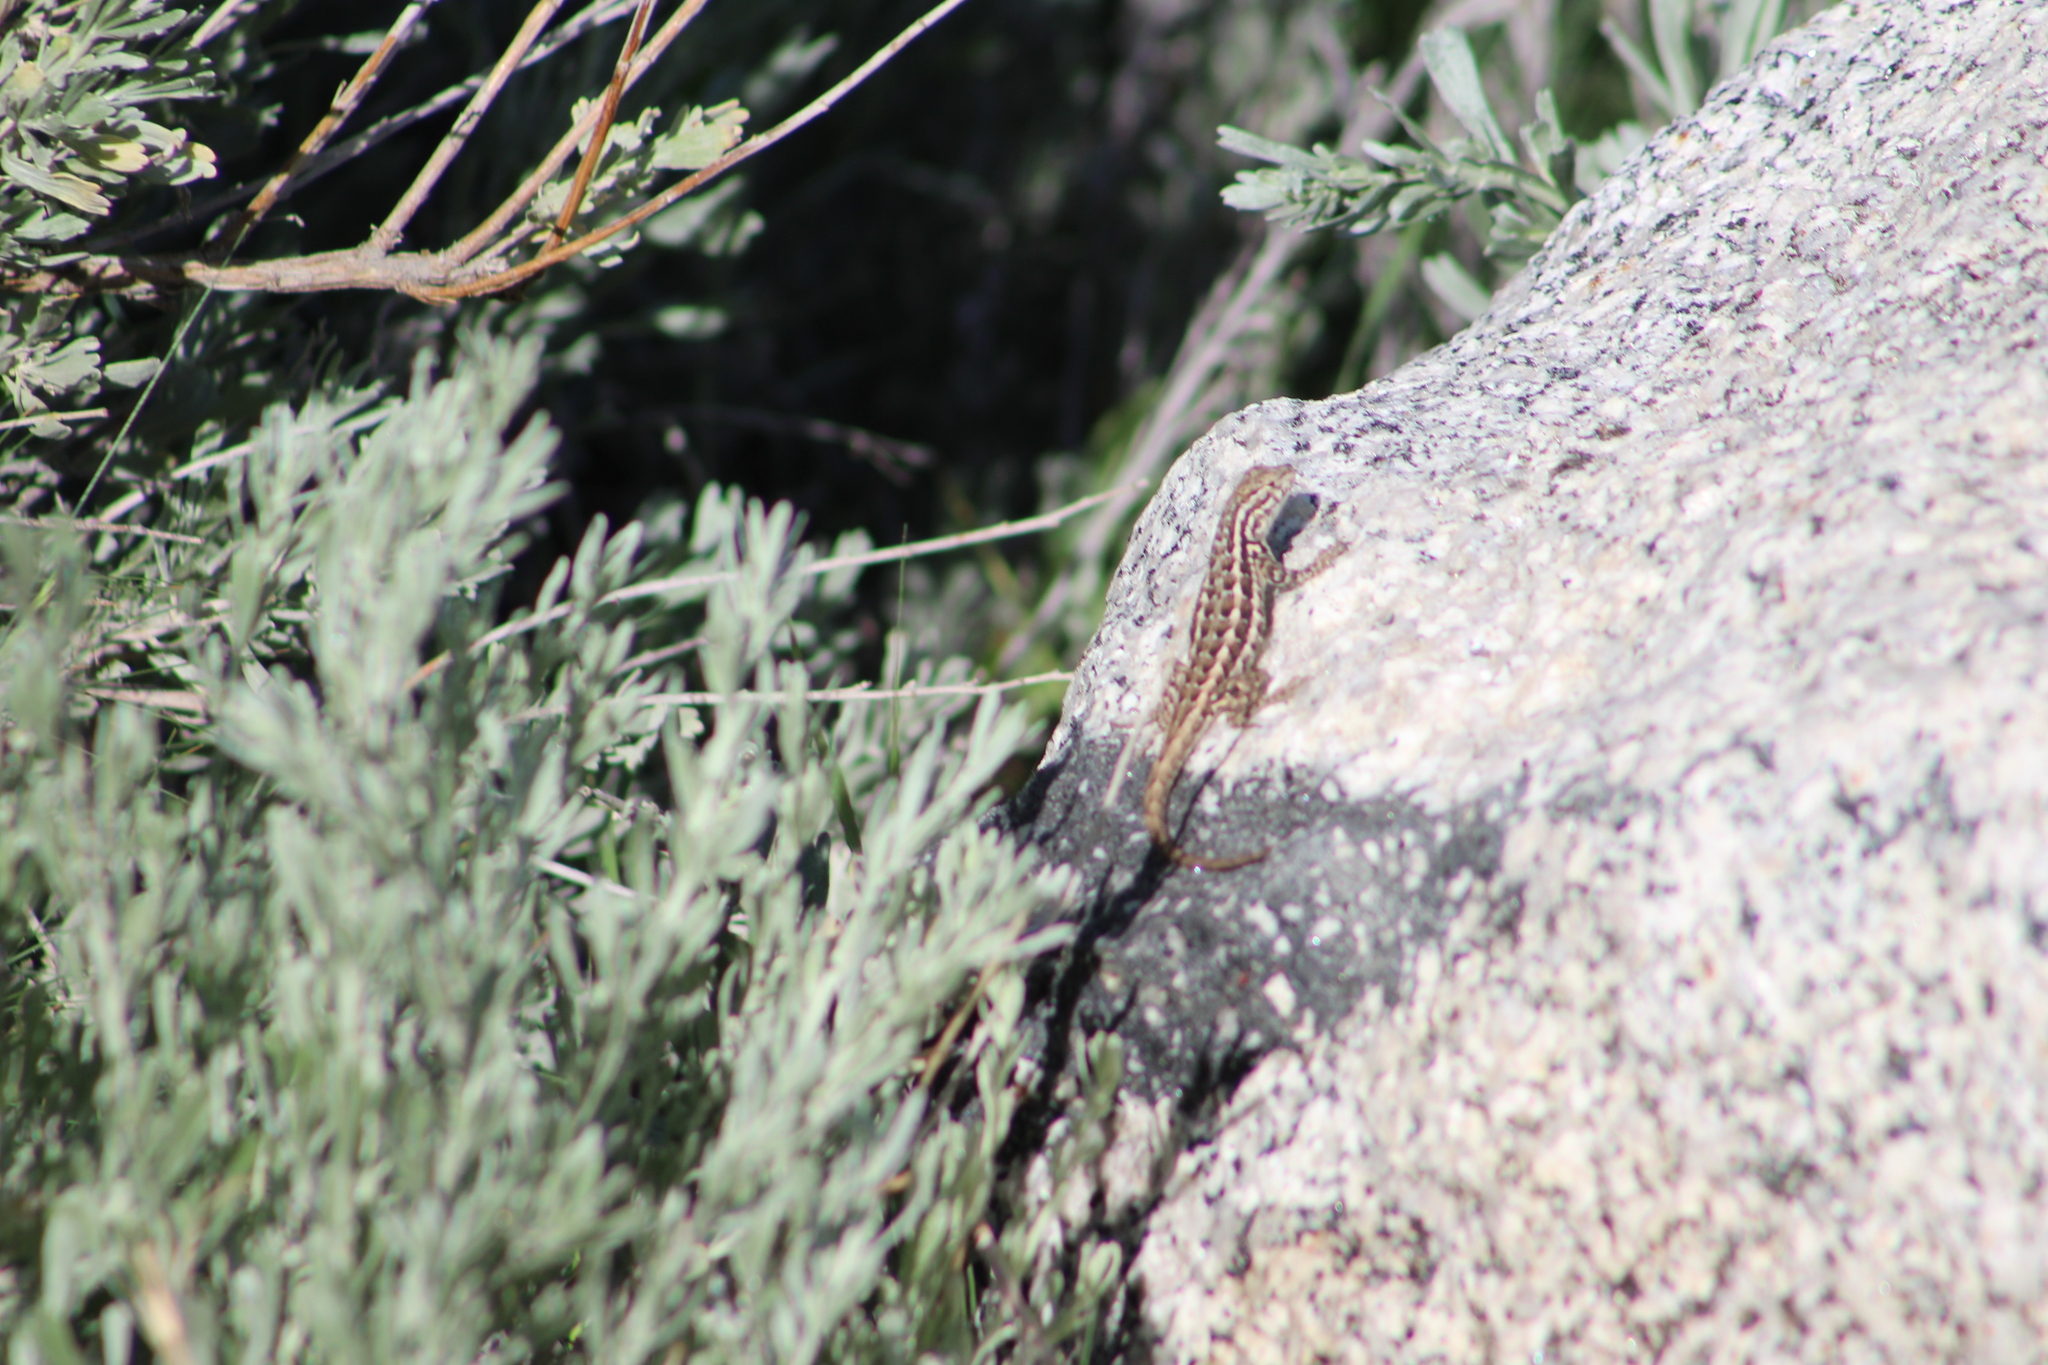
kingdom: Animalia
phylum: Chordata
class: Squamata
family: Phrynosomatidae
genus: Sceloporus
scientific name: Sceloporus graciosus
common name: Sagebrush lizard
